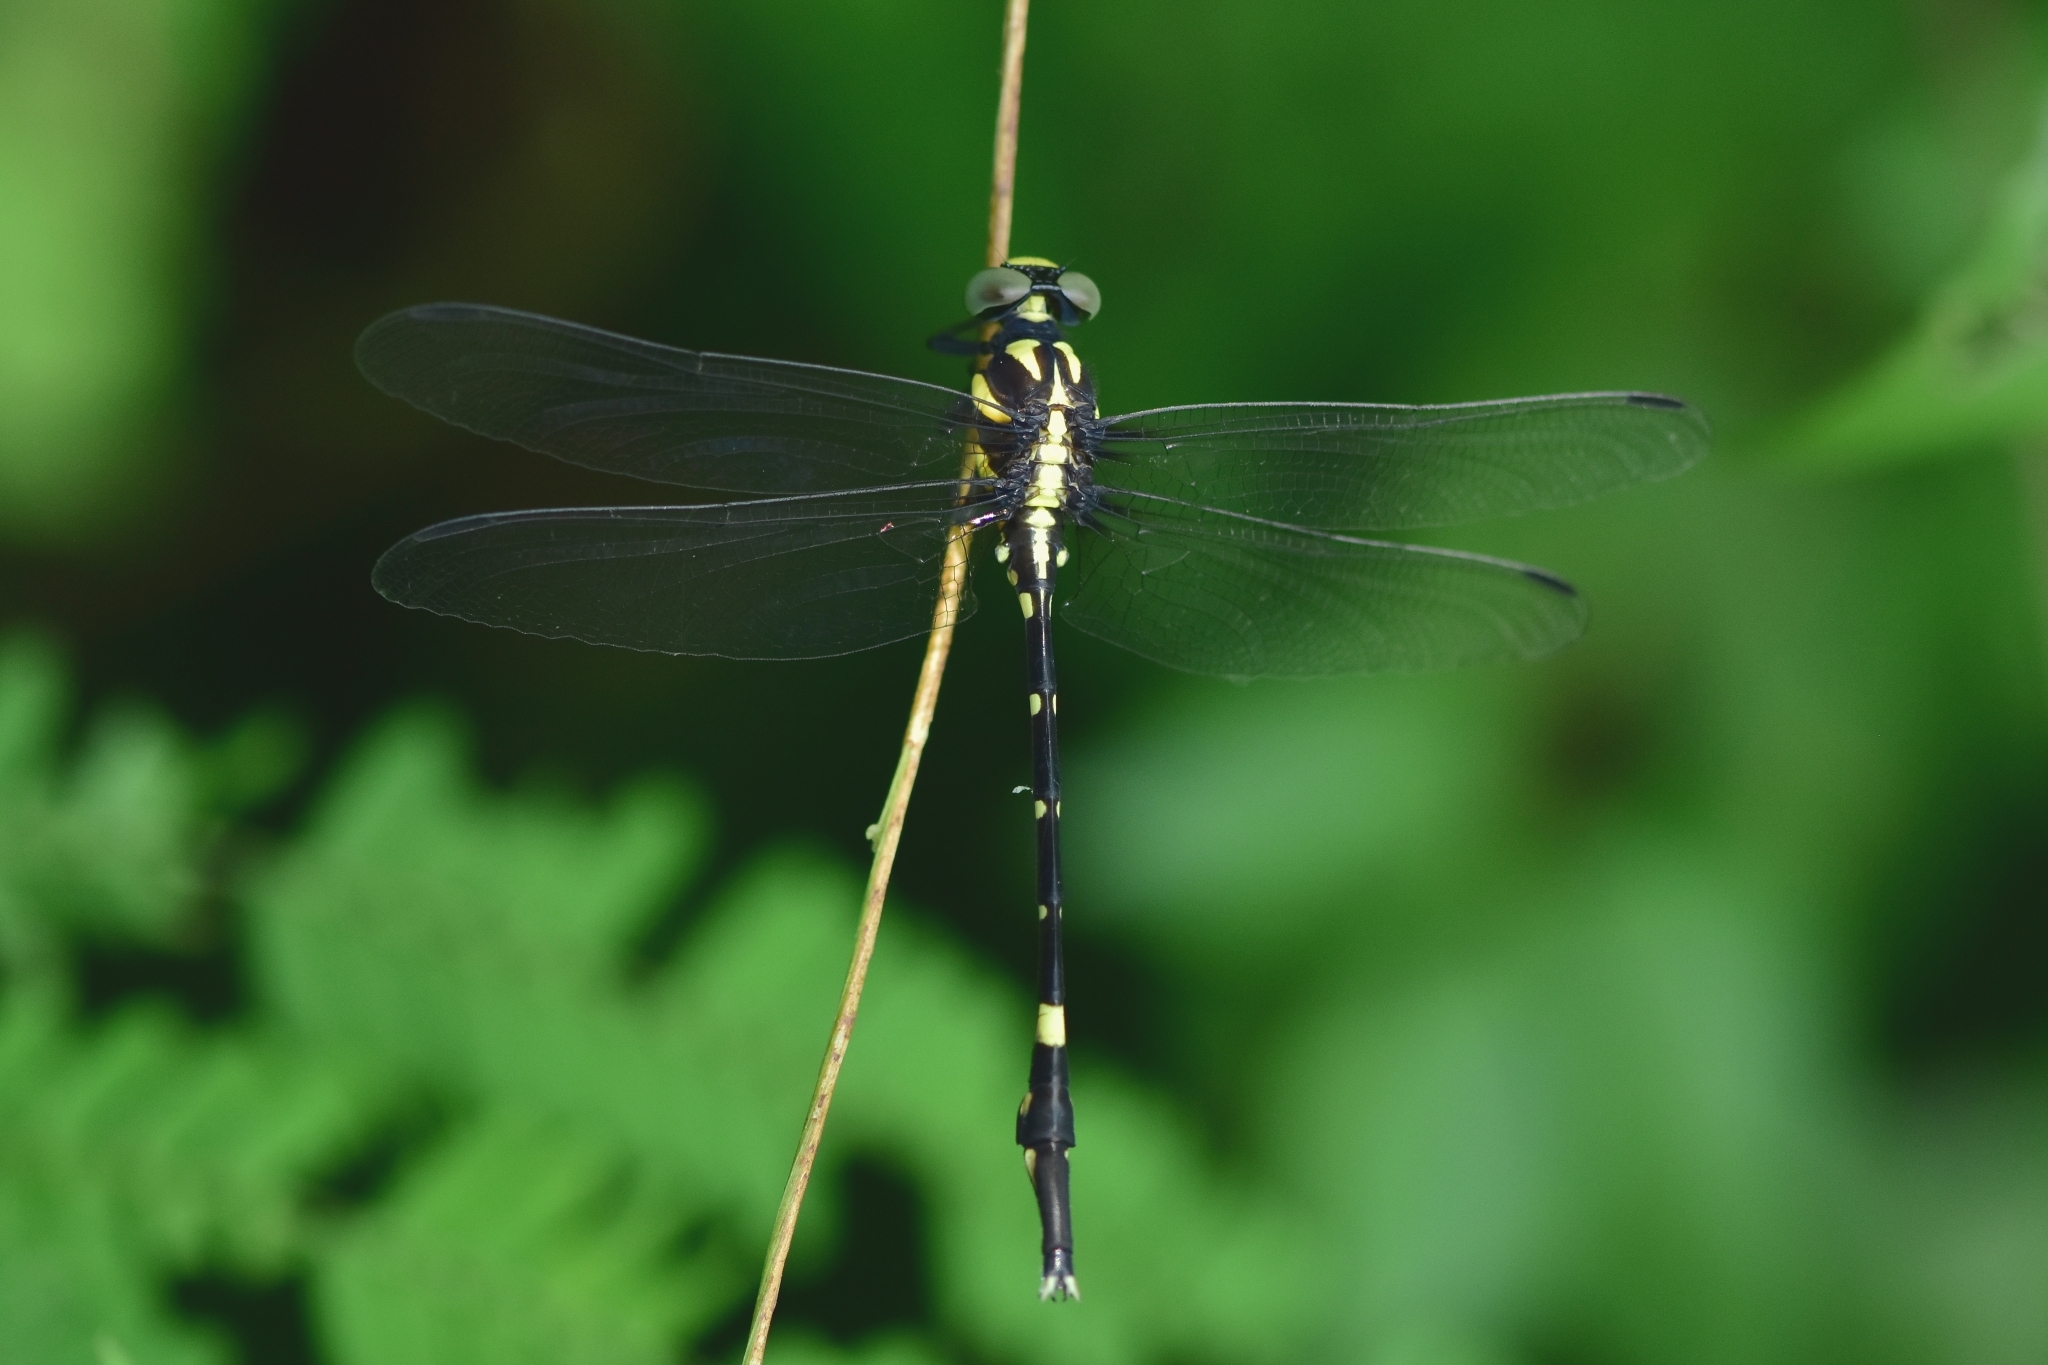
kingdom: Animalia
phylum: Arthropoda
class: Insecta
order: Odonata
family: Gomphidae
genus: Macrogomphus
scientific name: Macrogomphus wynaadicus
